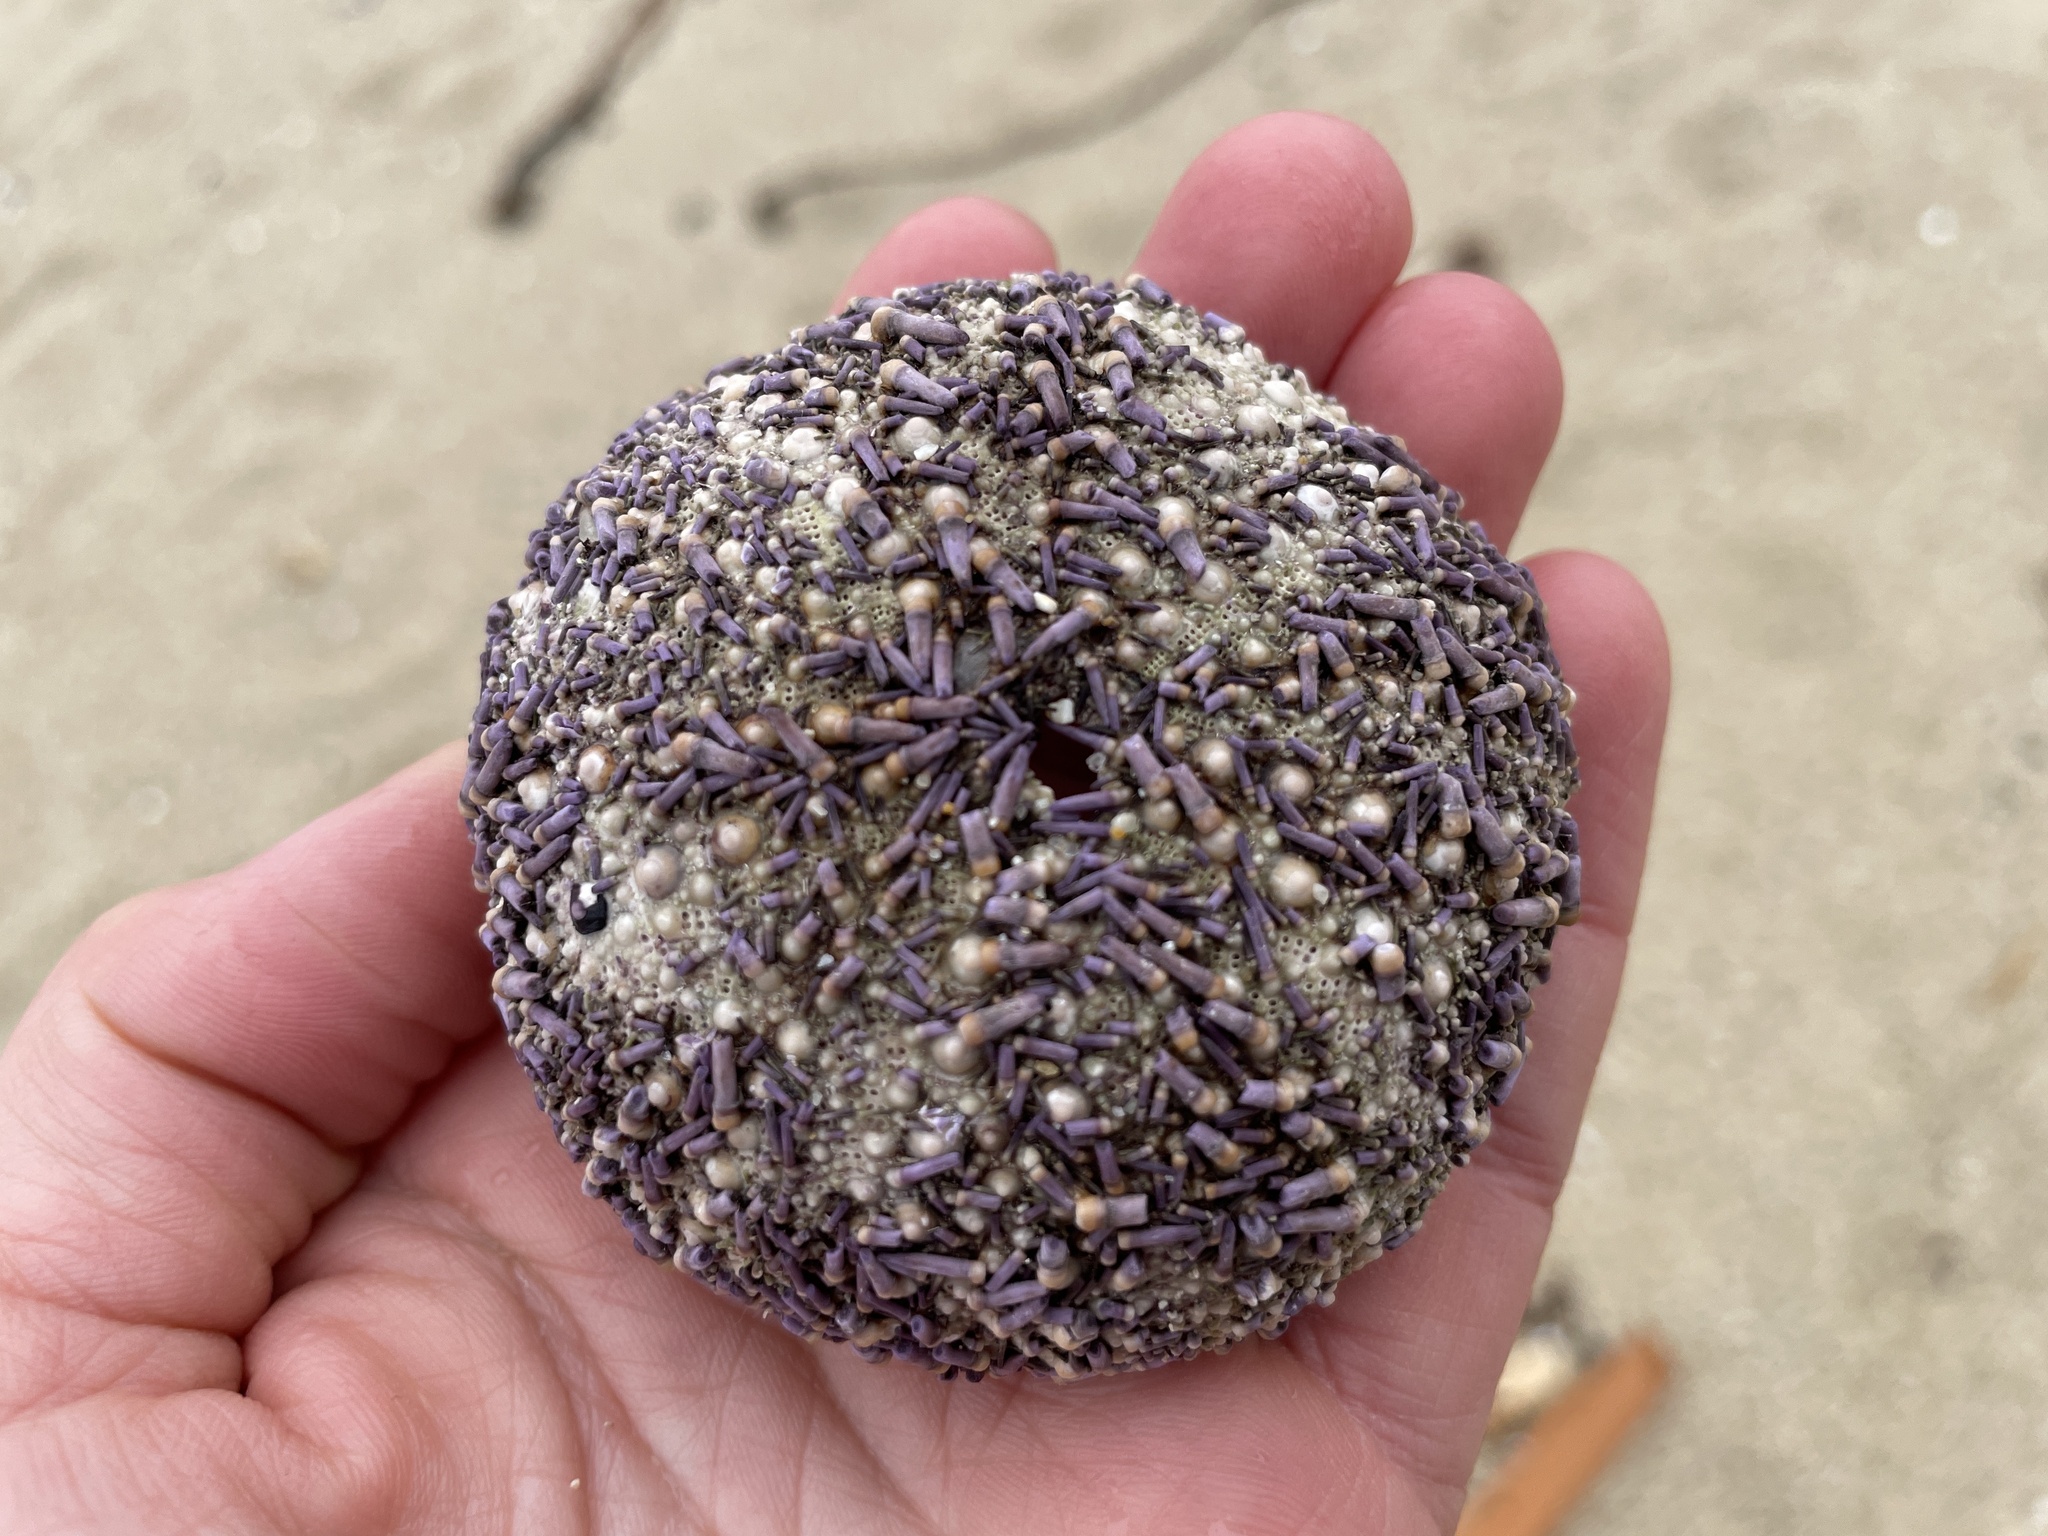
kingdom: Animalia
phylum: Echinodermata
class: Echinoidea
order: Camarodonta
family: Strongylocentrotidae
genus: Strongylocentrotus
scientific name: Strongylocentrotus purpuratus
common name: Purple sea urchin
